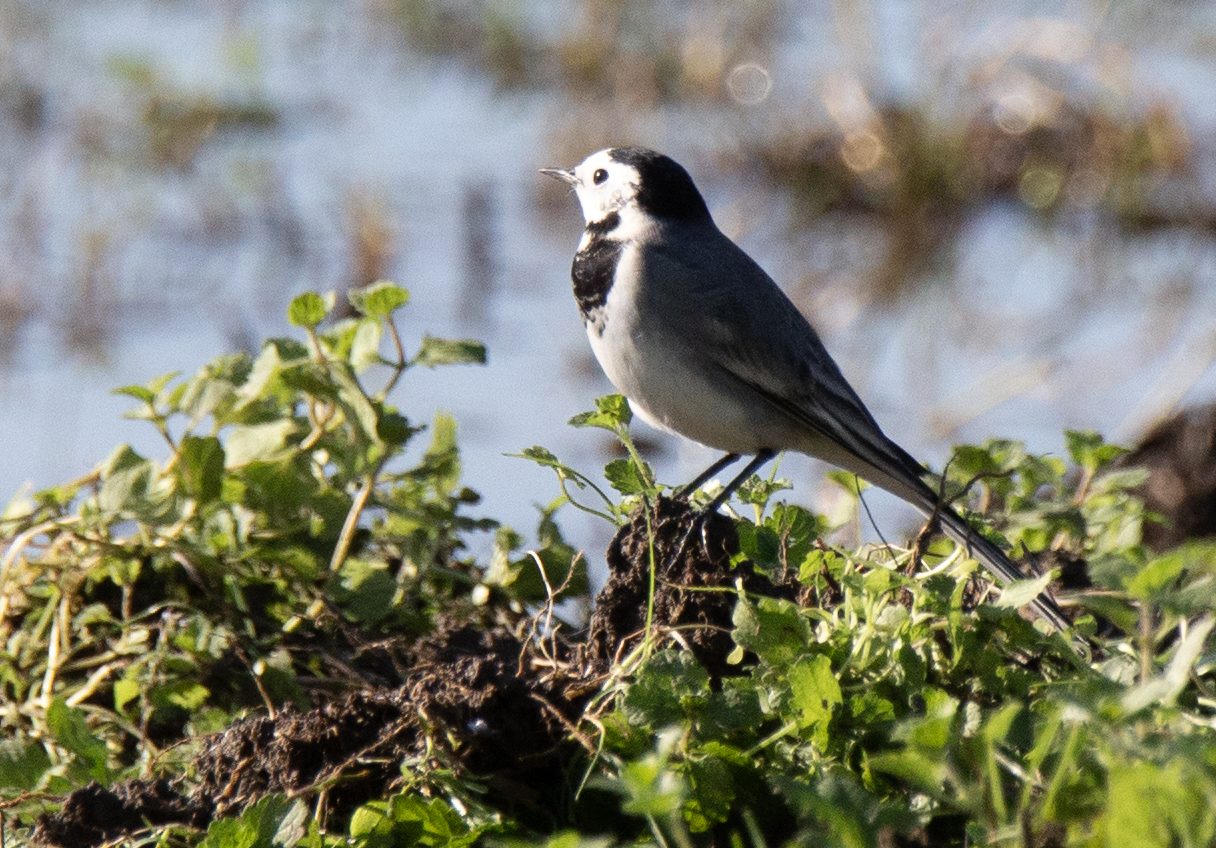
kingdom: Animalia
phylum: Chordata
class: Aves
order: Passeriformes
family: Motacillidae
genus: Motacilla
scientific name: Motacilla alba
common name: White wagtail
